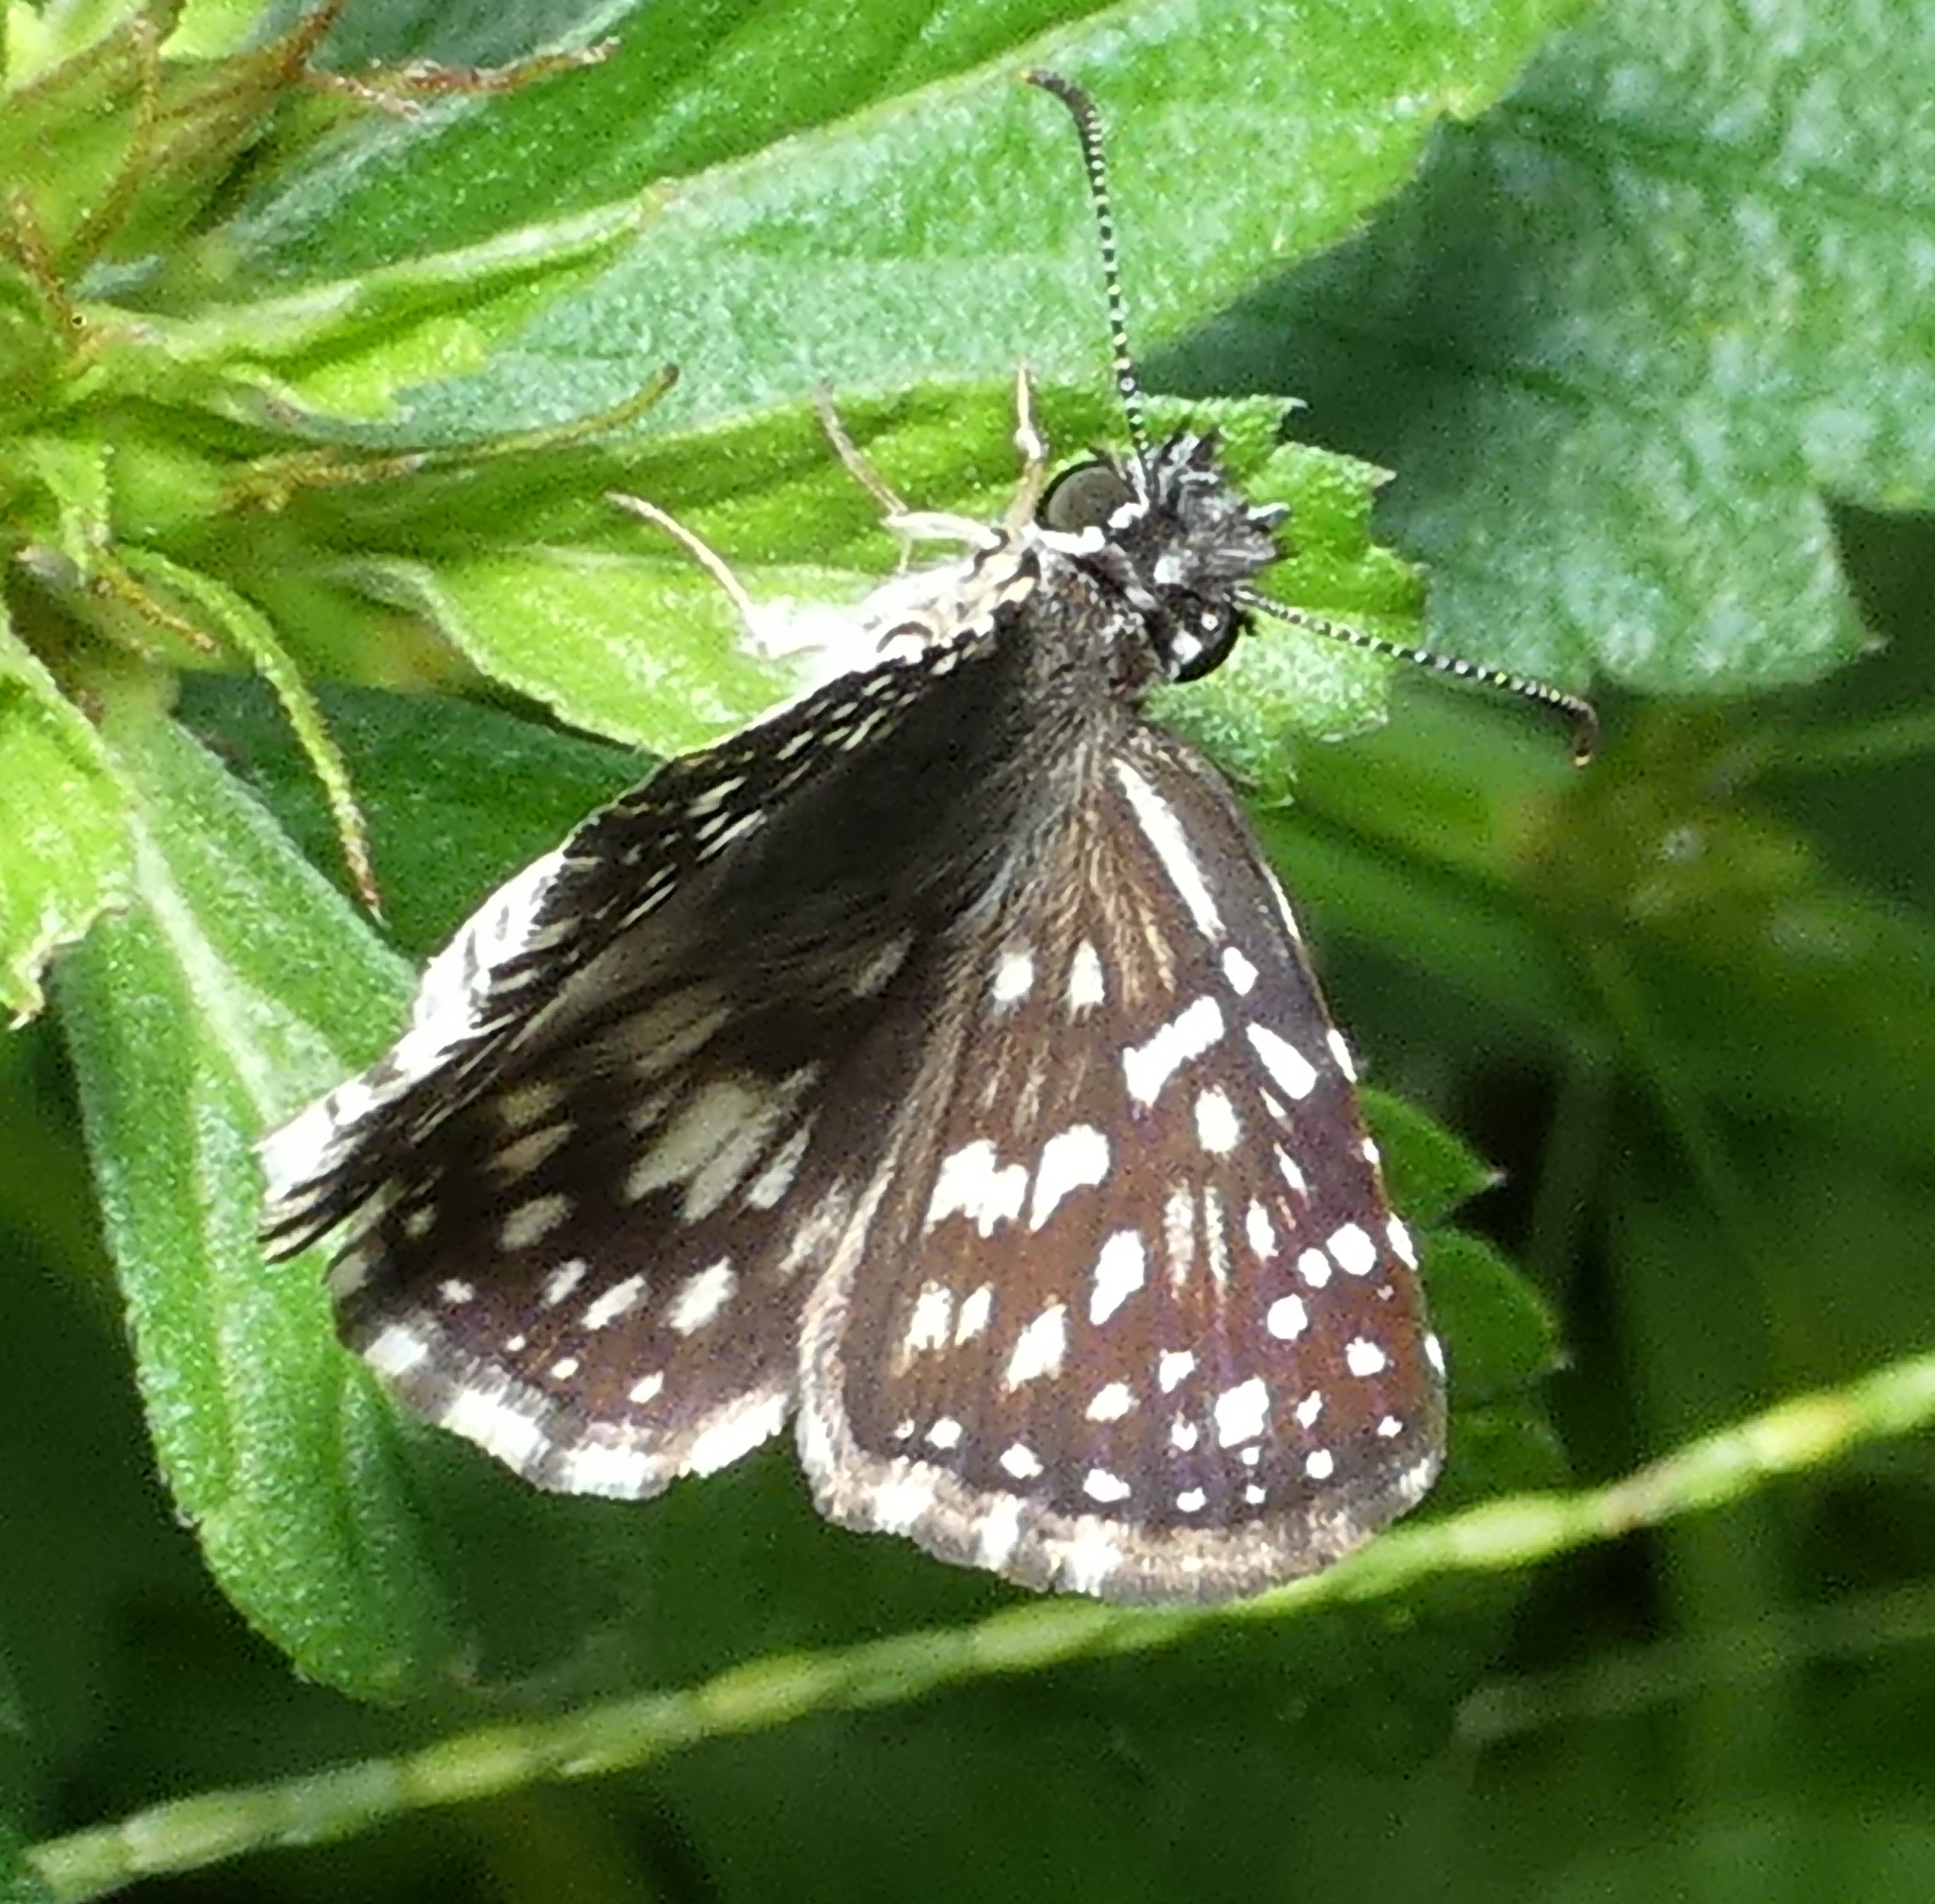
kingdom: Animalia
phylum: Arthropoda
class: Insecta
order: Lepidoptera
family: Hesperiidae
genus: Pyrgus
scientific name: Pyrgus oileus
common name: Tropical checkered-skipper
